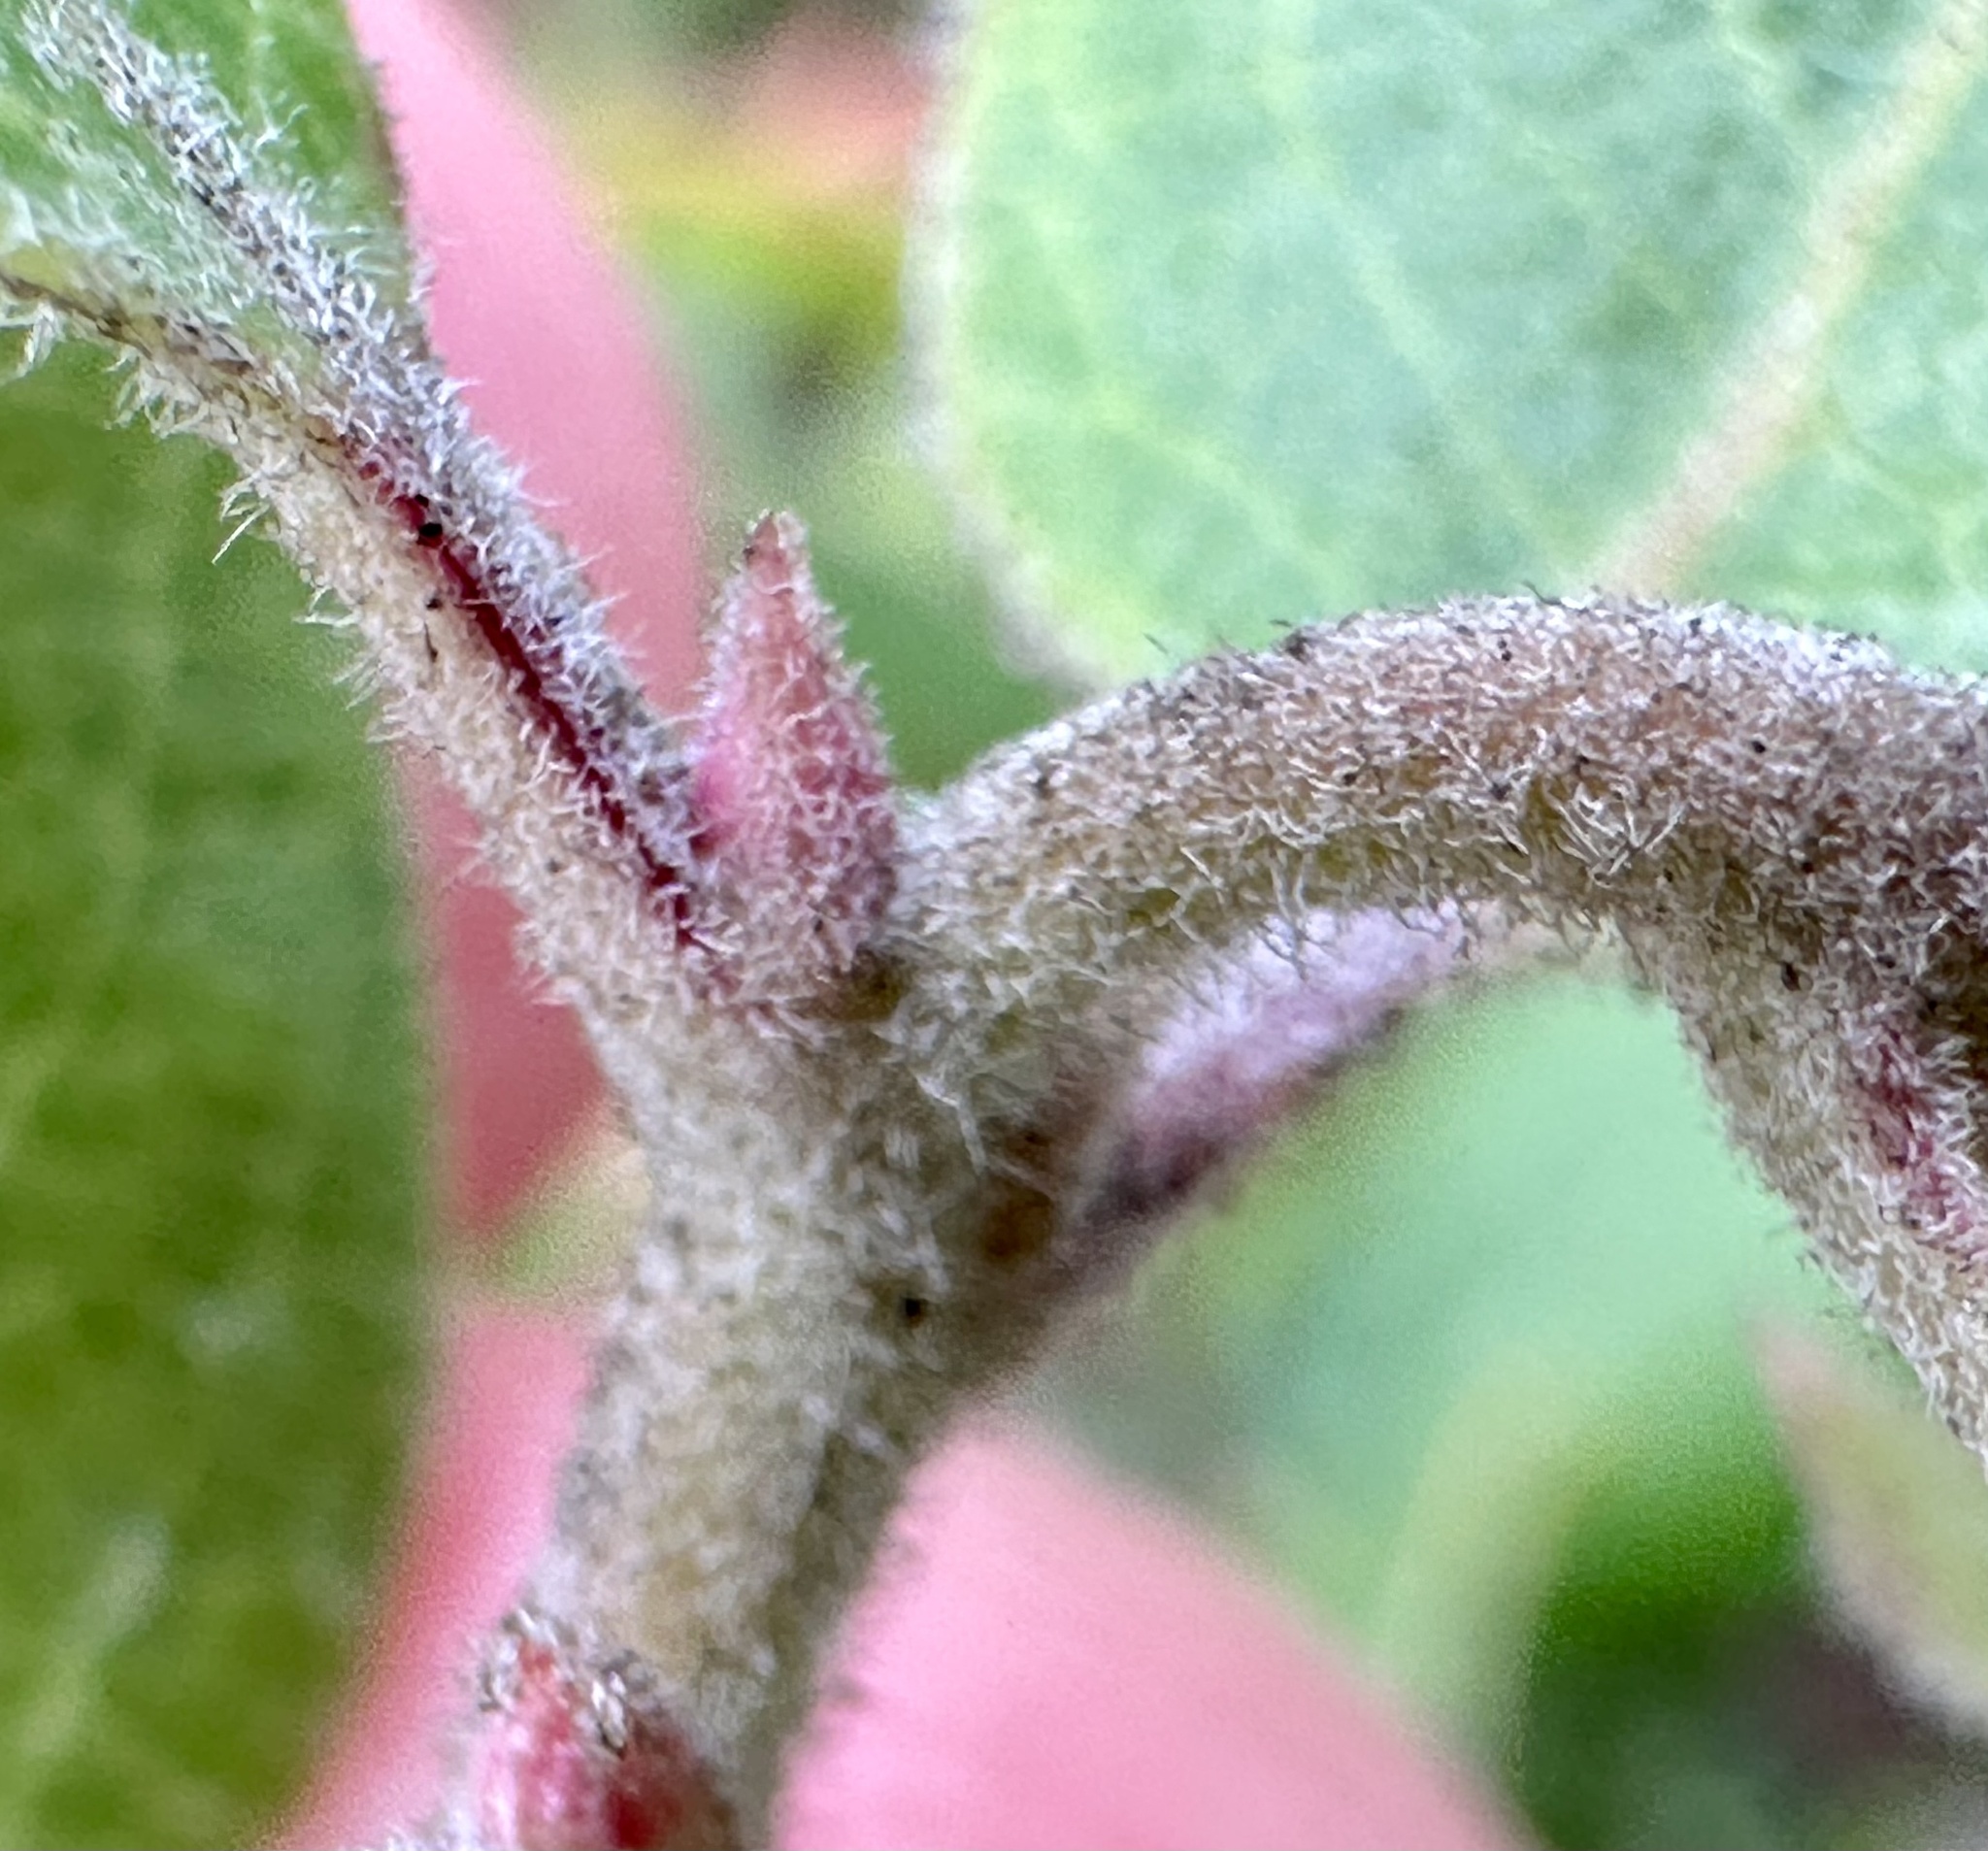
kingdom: Plantae
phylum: Tracheophyta
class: Magnoliopsida
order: Ericales
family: Ericaceae
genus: Arctostaphylos
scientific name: Arctostaphylos tomentosa
